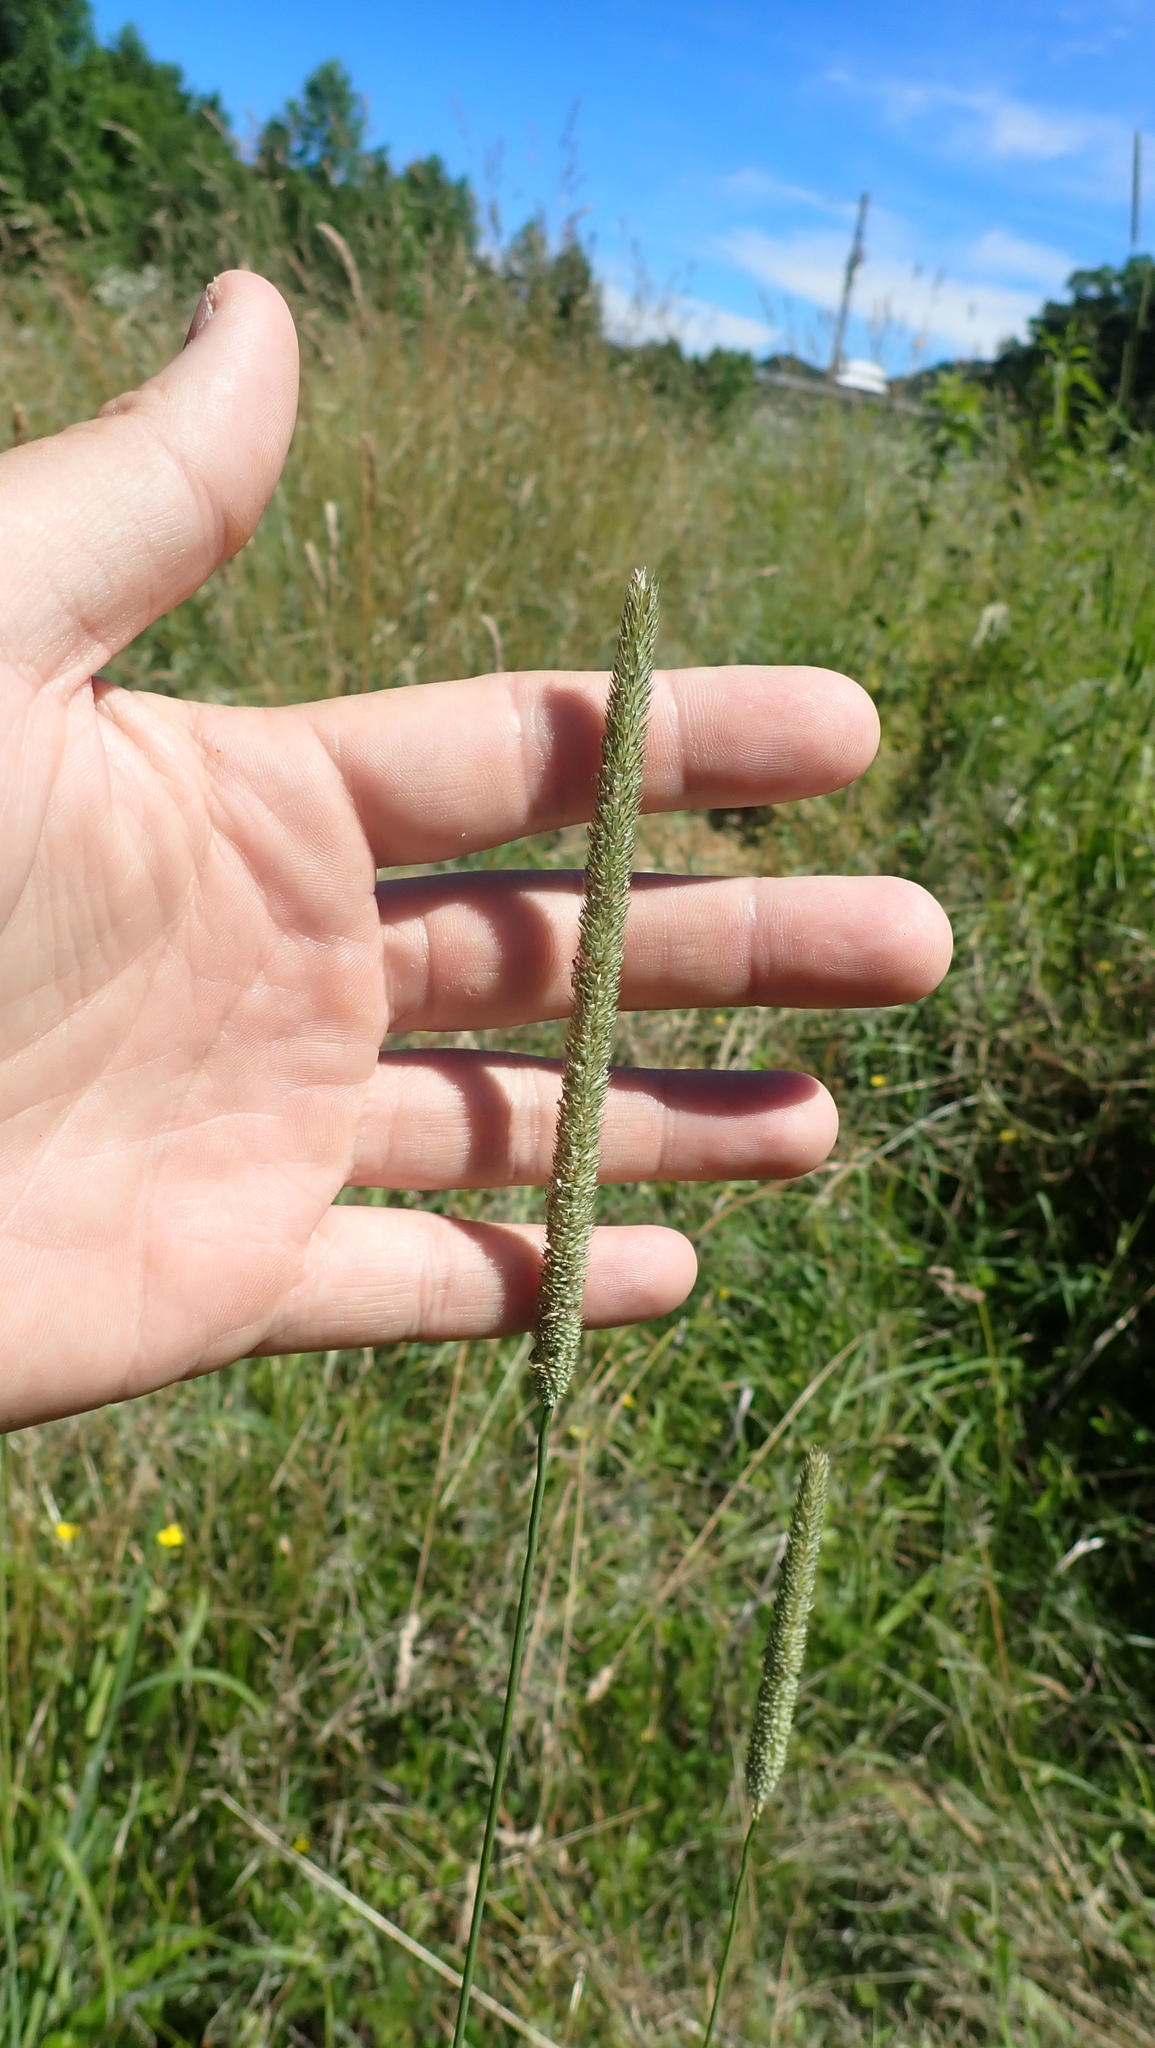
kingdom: Plantae
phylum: Tracheophyta
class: Liliopsida
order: Poales
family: Poaceae
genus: Phleum
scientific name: Phleum pratense
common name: Timothy grass
